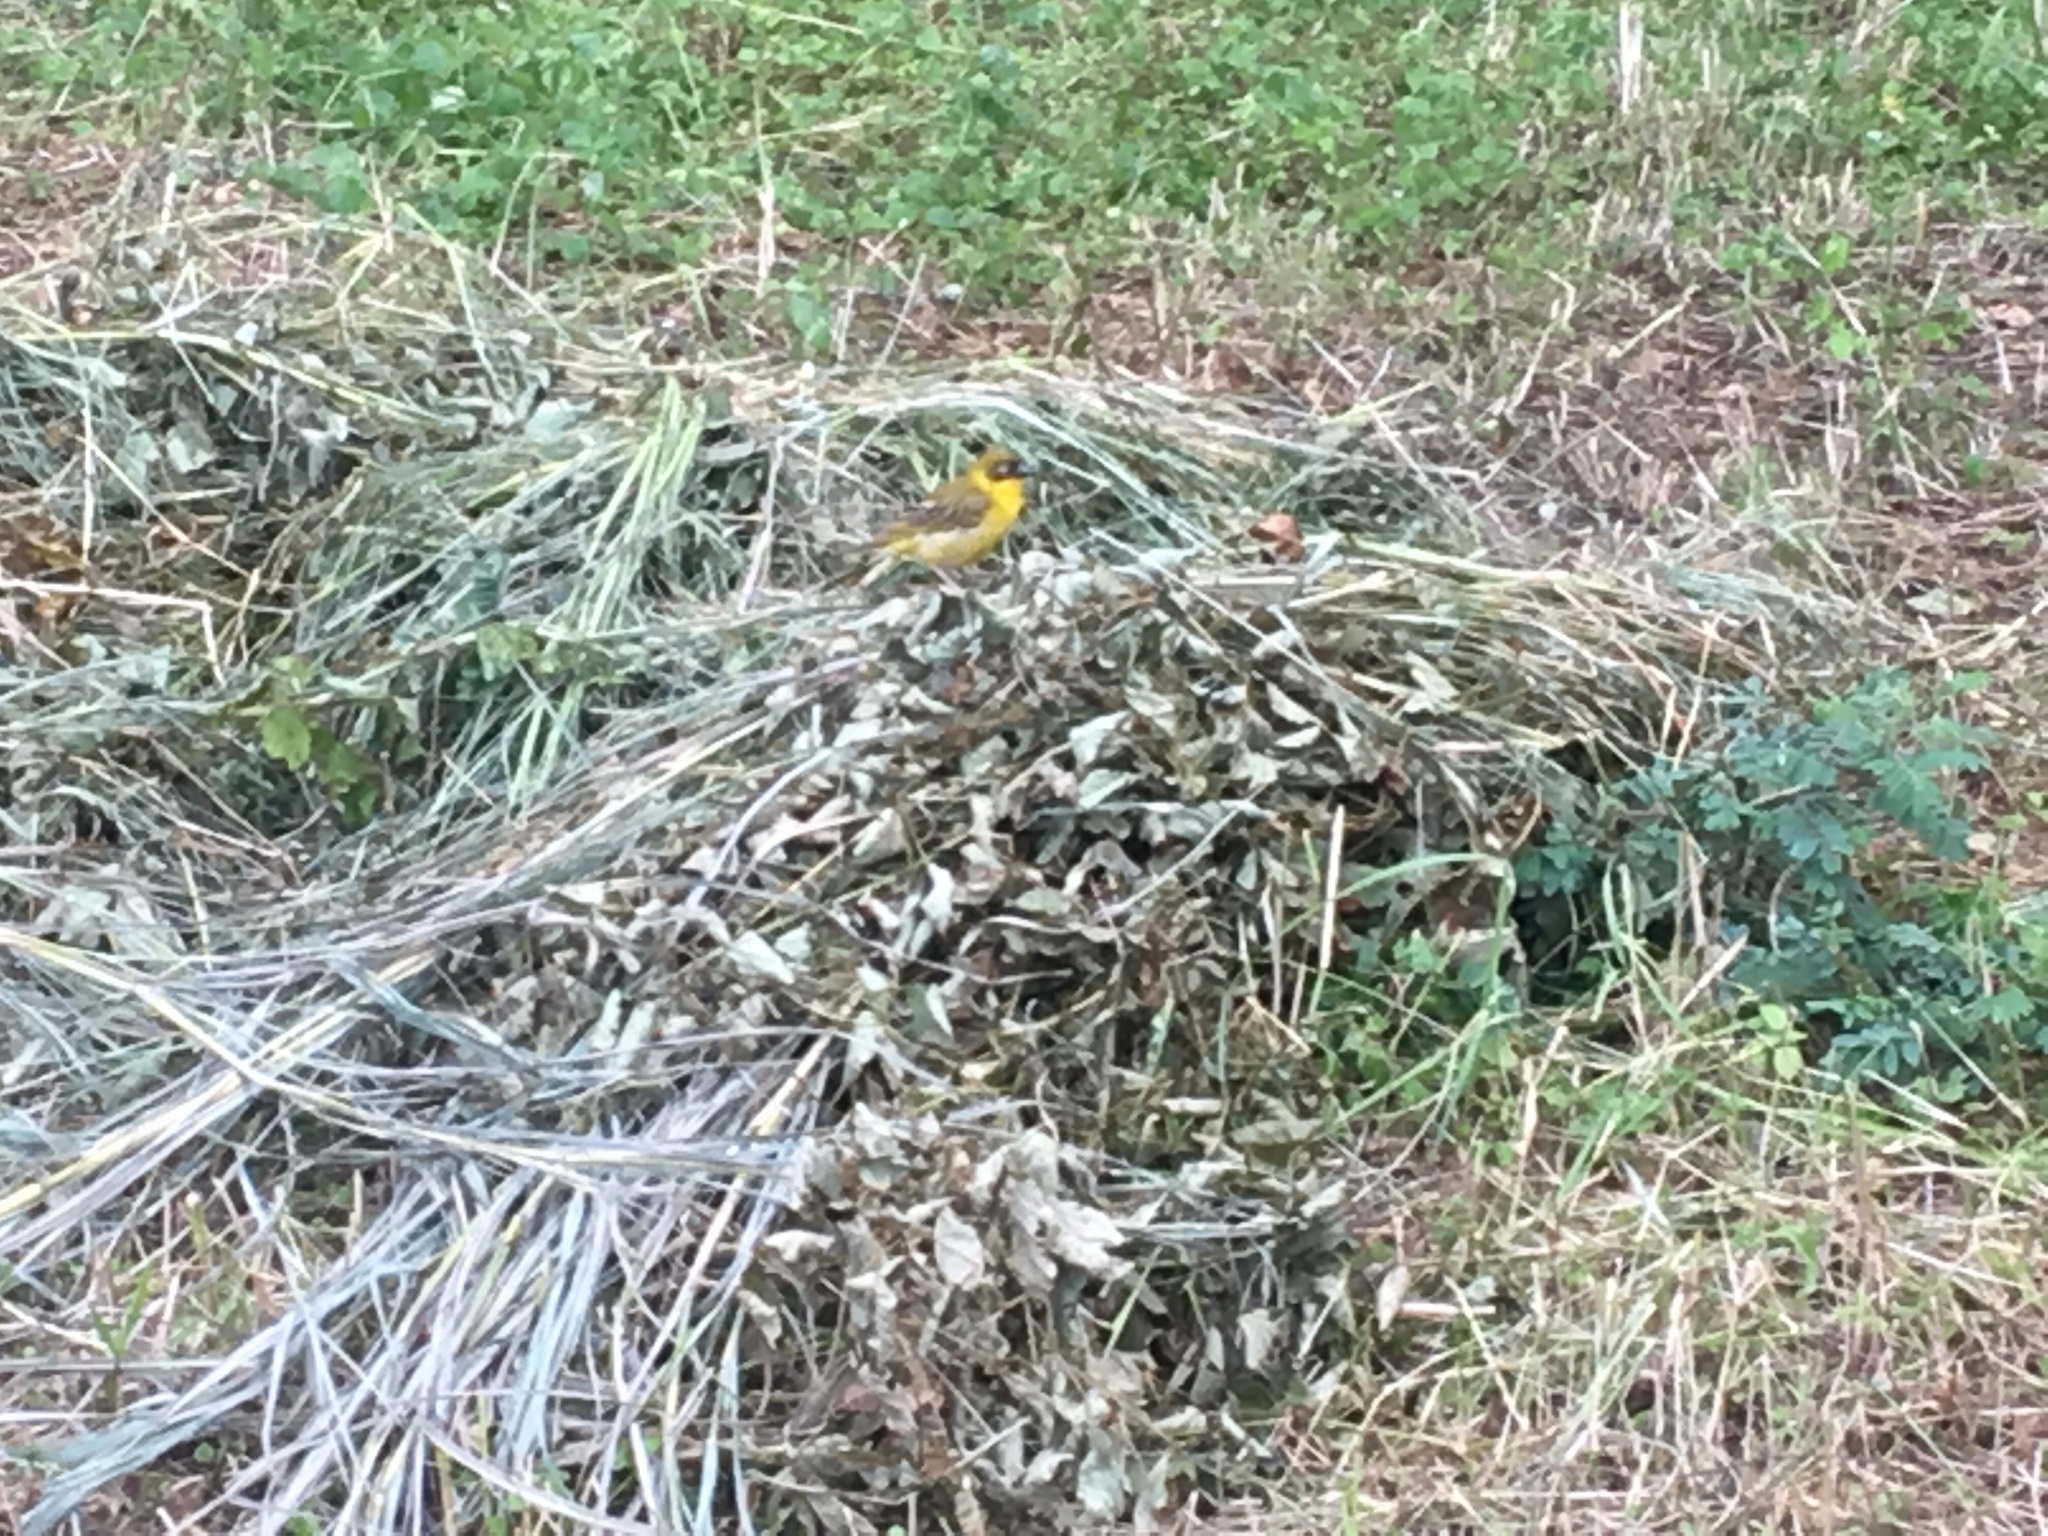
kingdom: Animalia
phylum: Chordata
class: Aves
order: Passeriformes
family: Ploceidae
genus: Ploceus
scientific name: Ploceus baglafecht
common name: Baglafecht weaver
